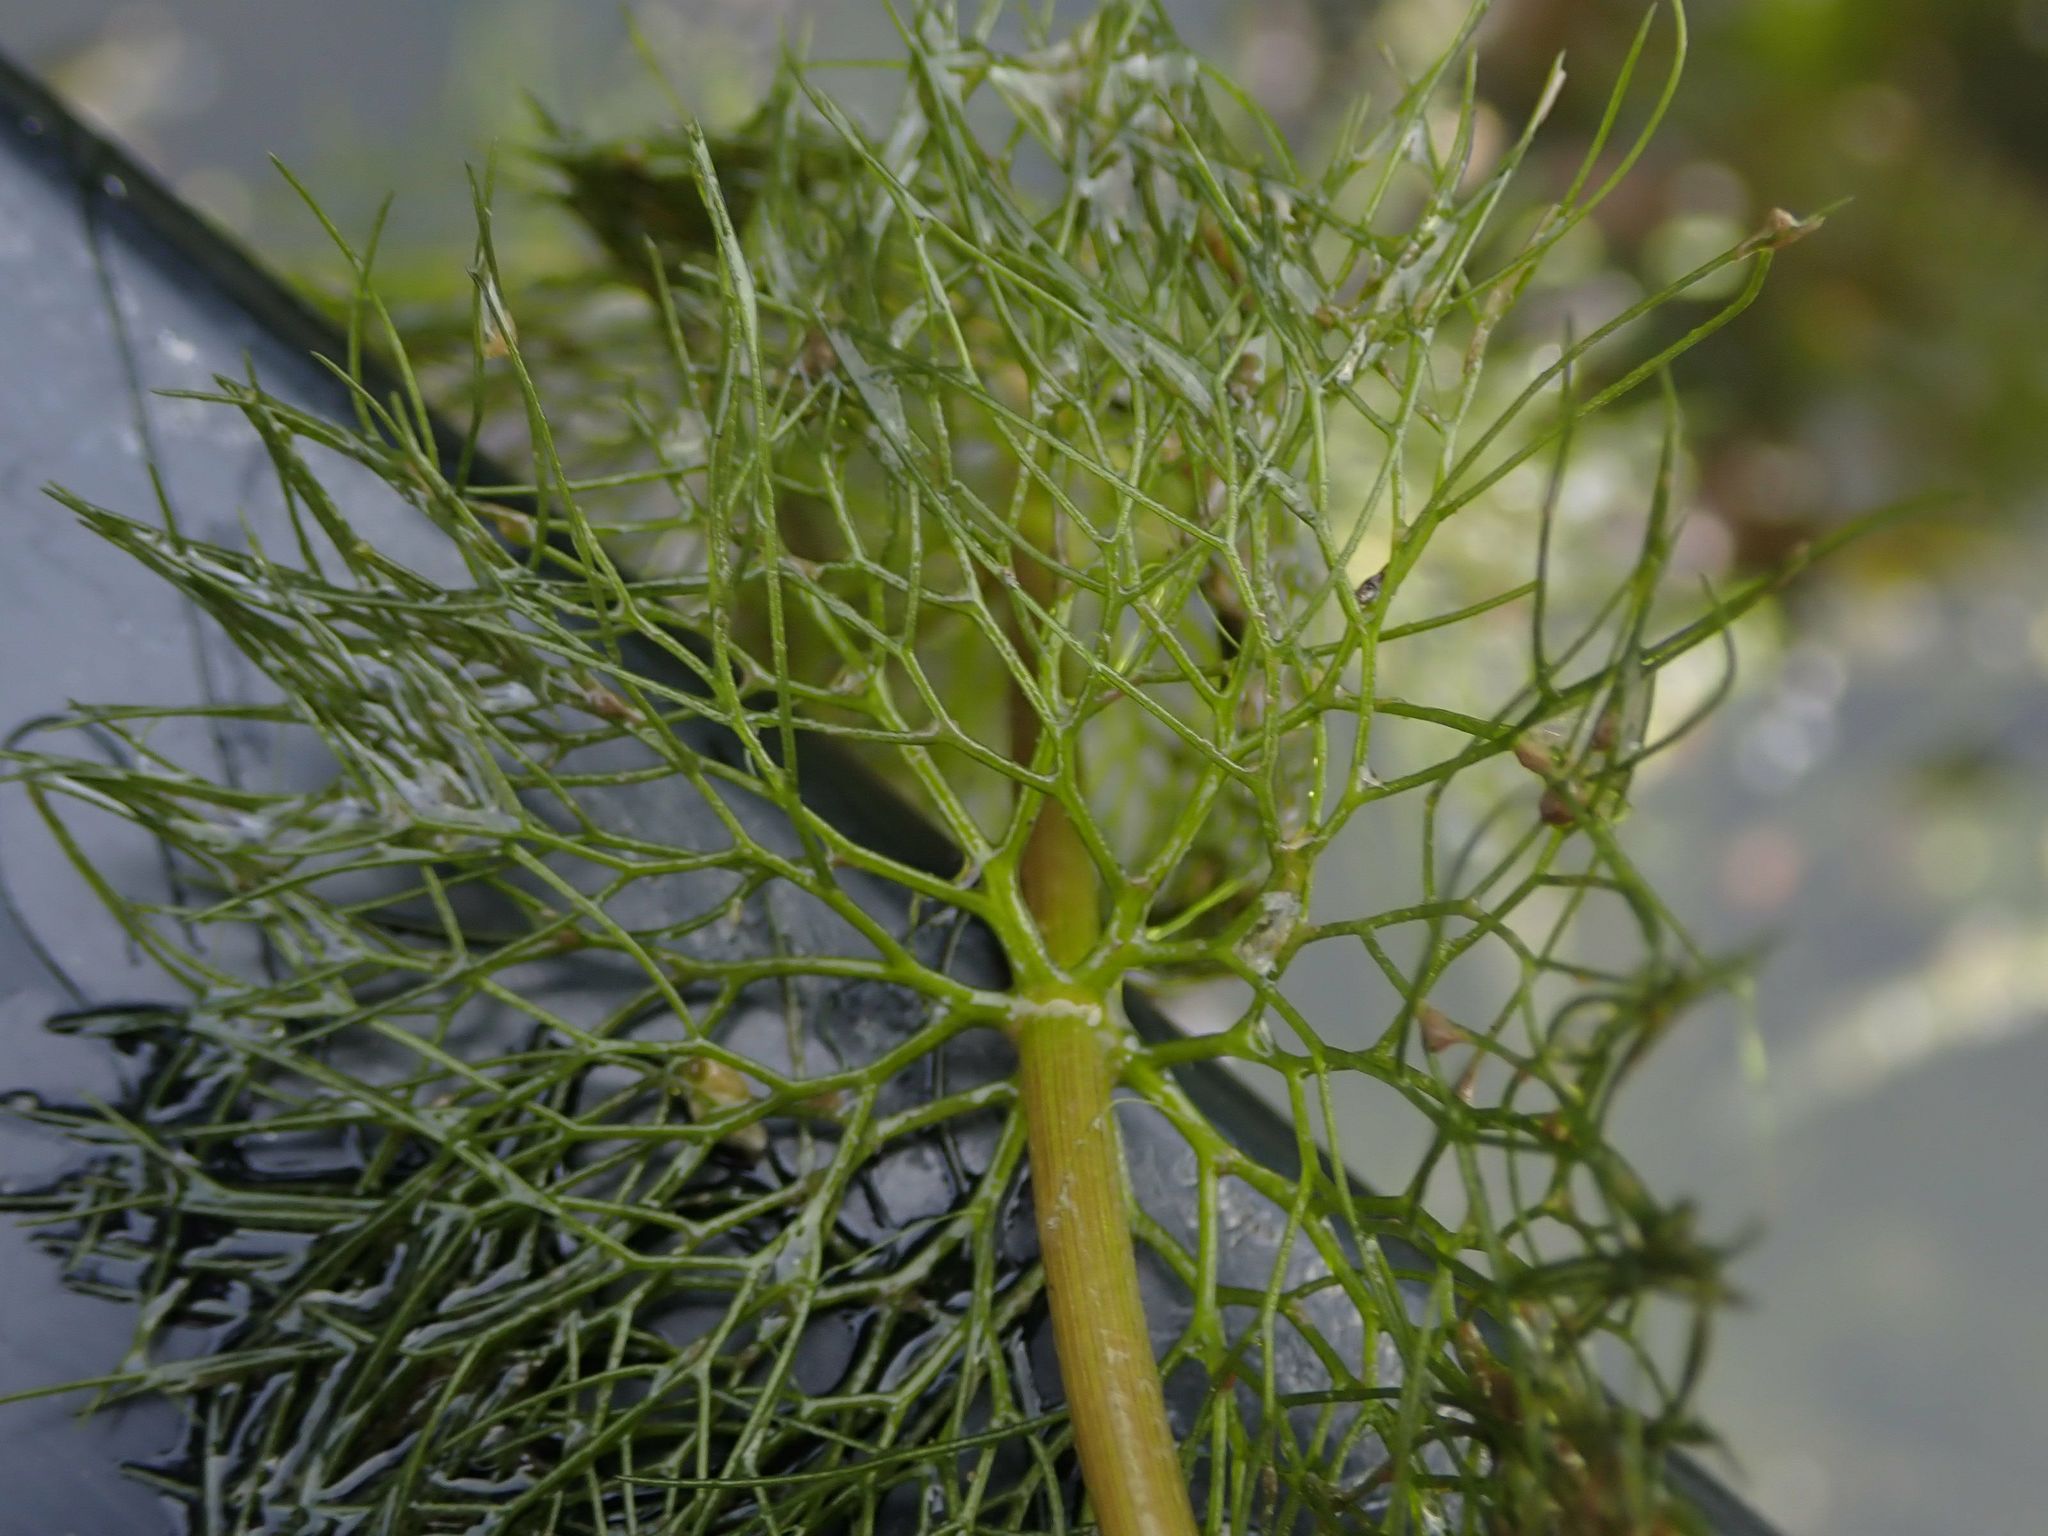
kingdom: Plantae
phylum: Tracheophyta
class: Magnoliopsida
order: Asterales
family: Asteraceae
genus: Bidens
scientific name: Bidens beckii
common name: Beck's beggarticks
